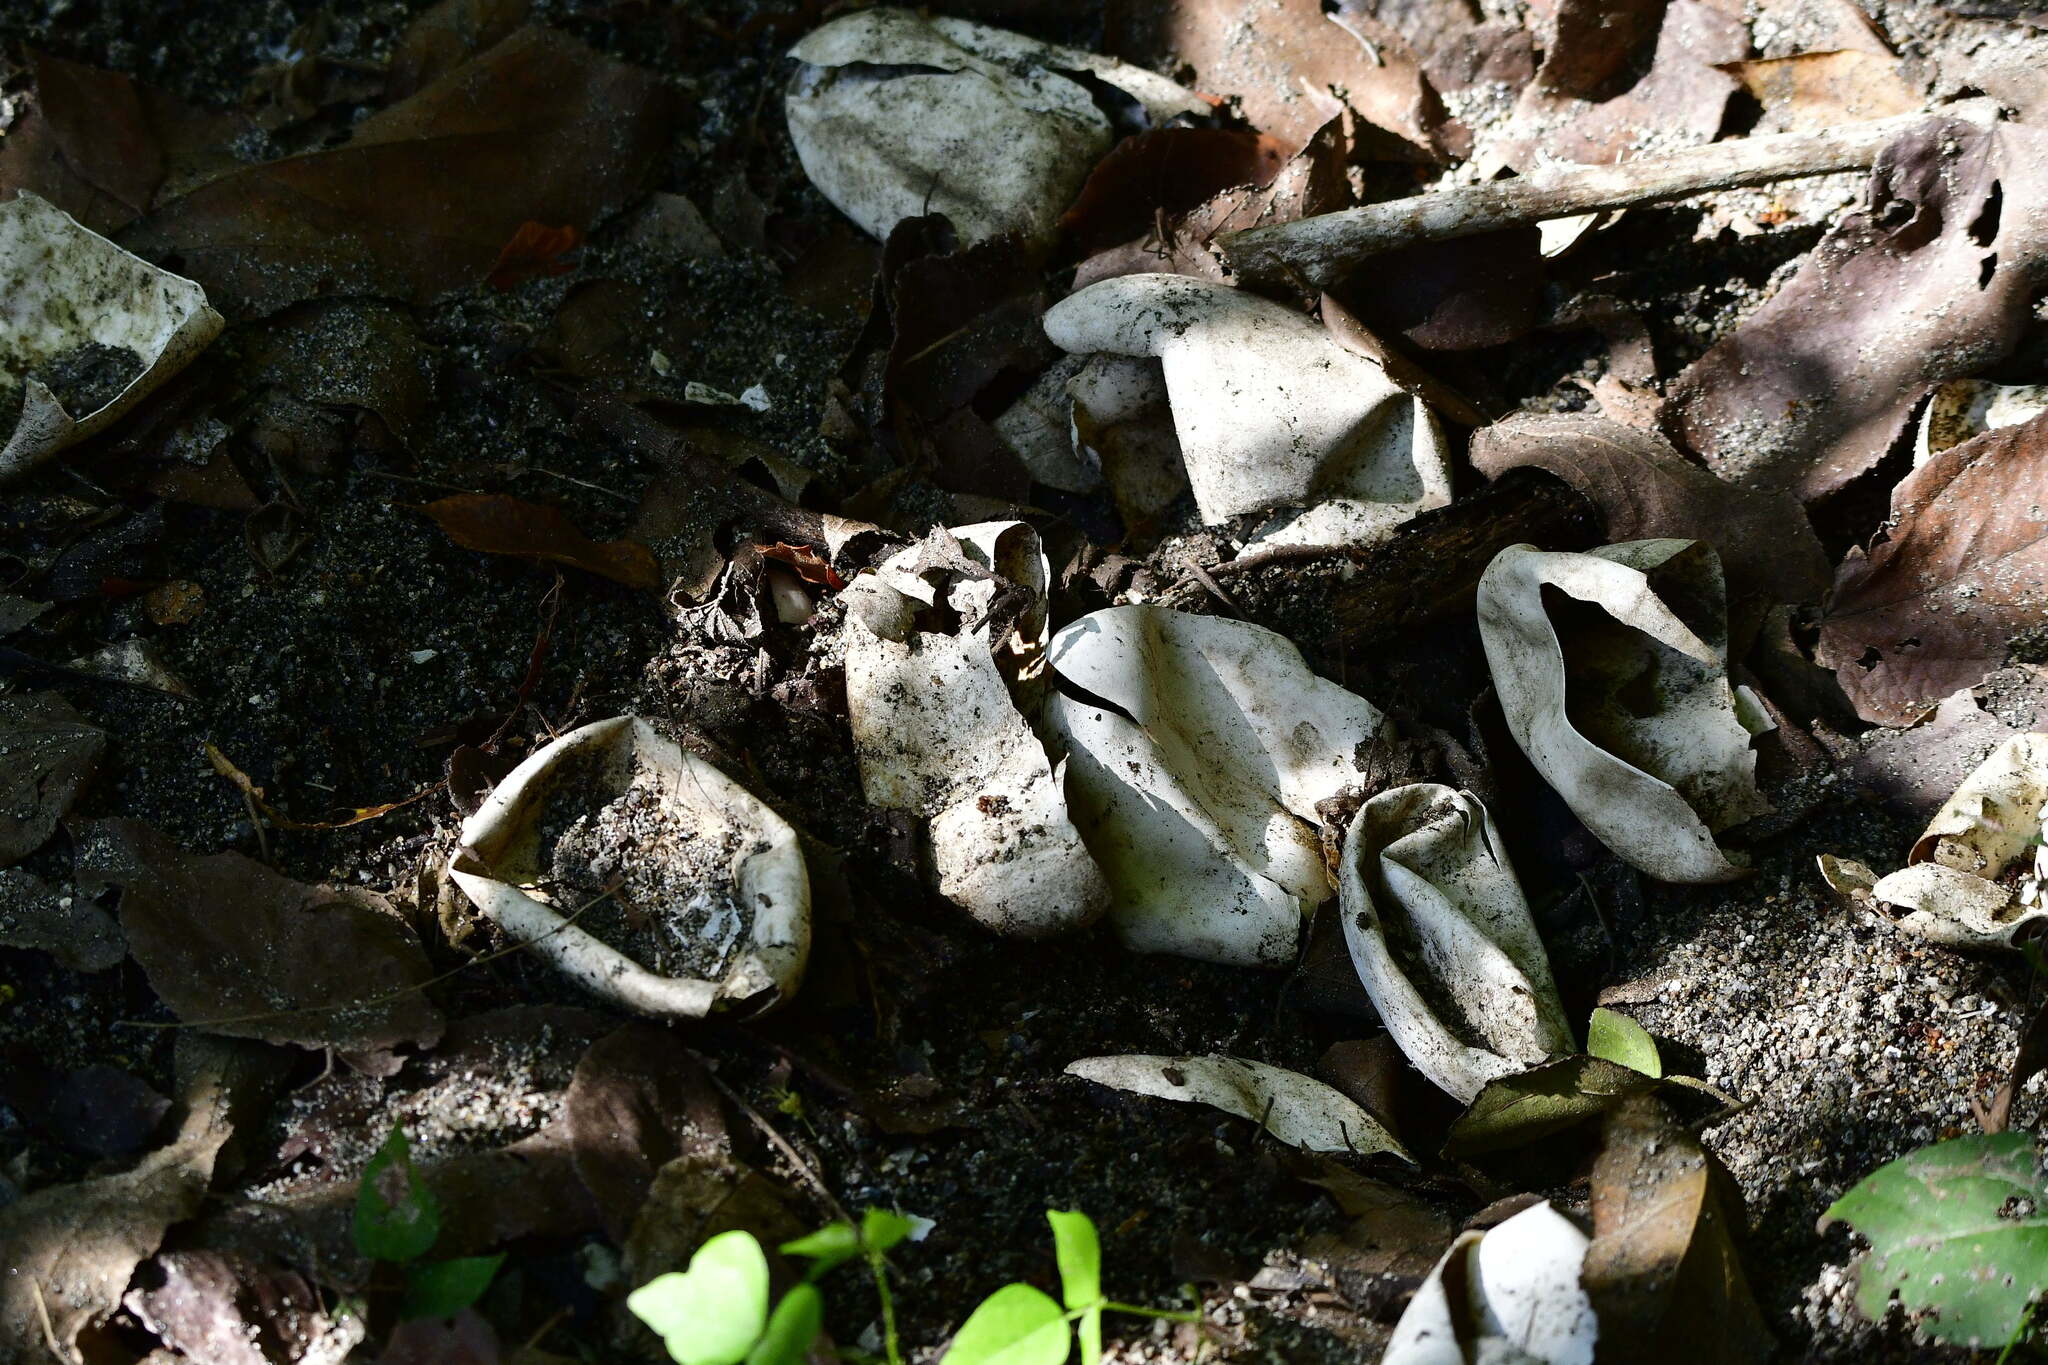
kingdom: Animalia
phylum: Chordata
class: Crocodylia
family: Crocodylidae
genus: Crocodylus
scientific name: Crocodylus acutus
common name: American crocodile
